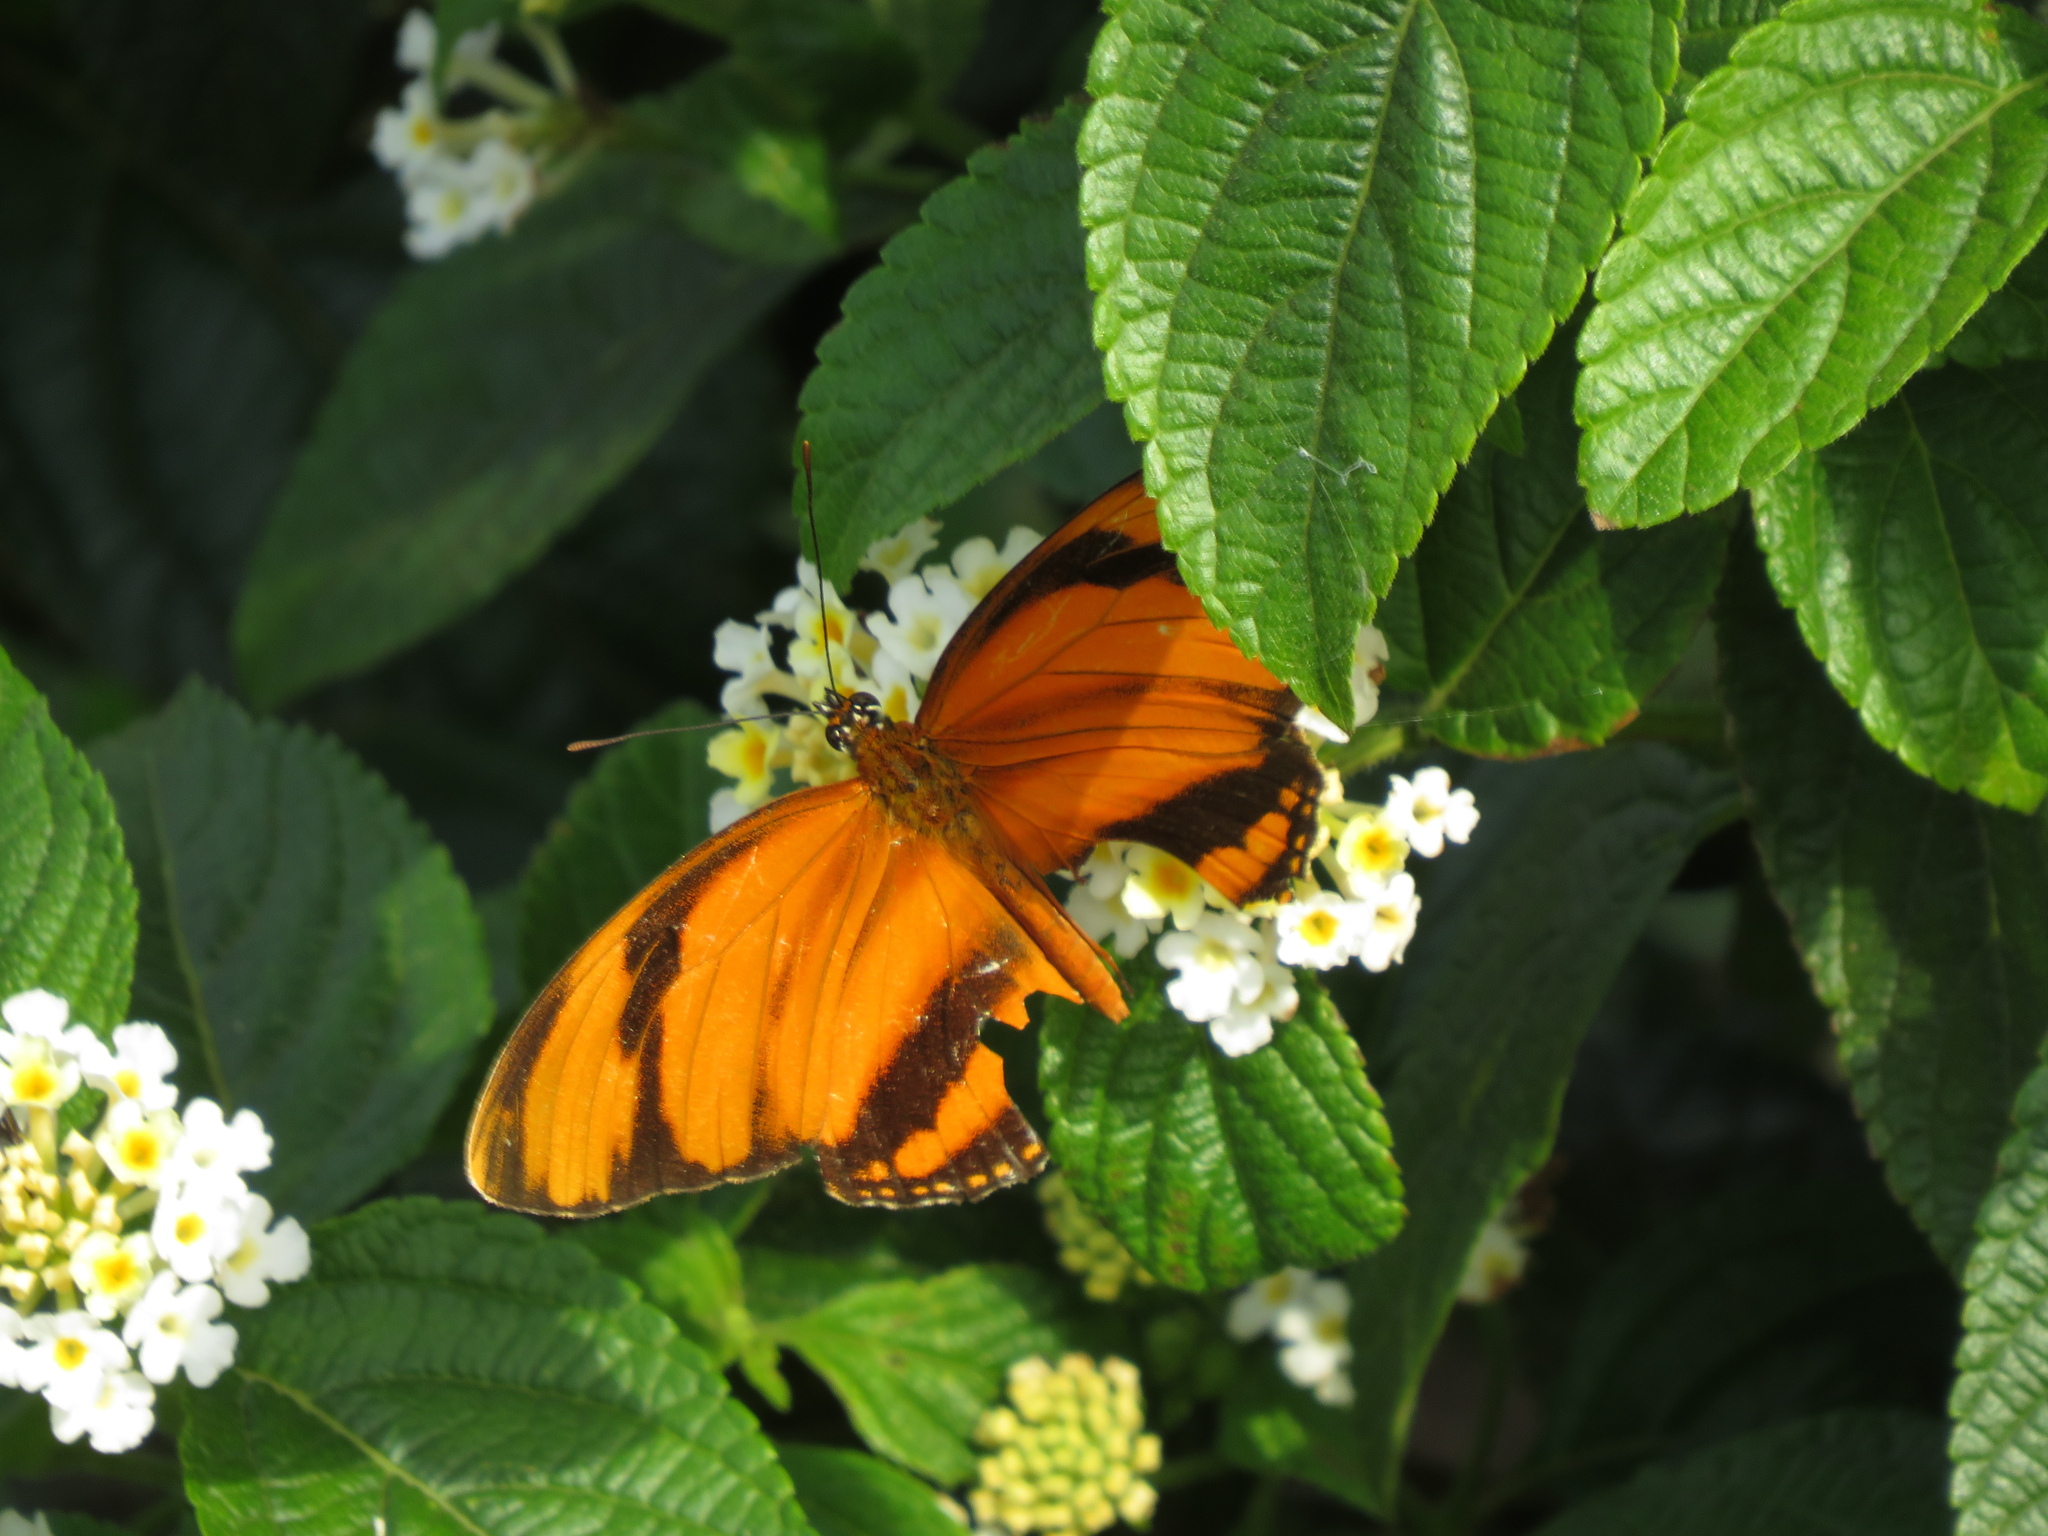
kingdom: Animalia
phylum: Arthropoda
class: Insecta
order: Lepidoptera
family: Nymphalidae
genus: Dryadula
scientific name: Dryadula phaetusa
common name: Banded orange heliconian
